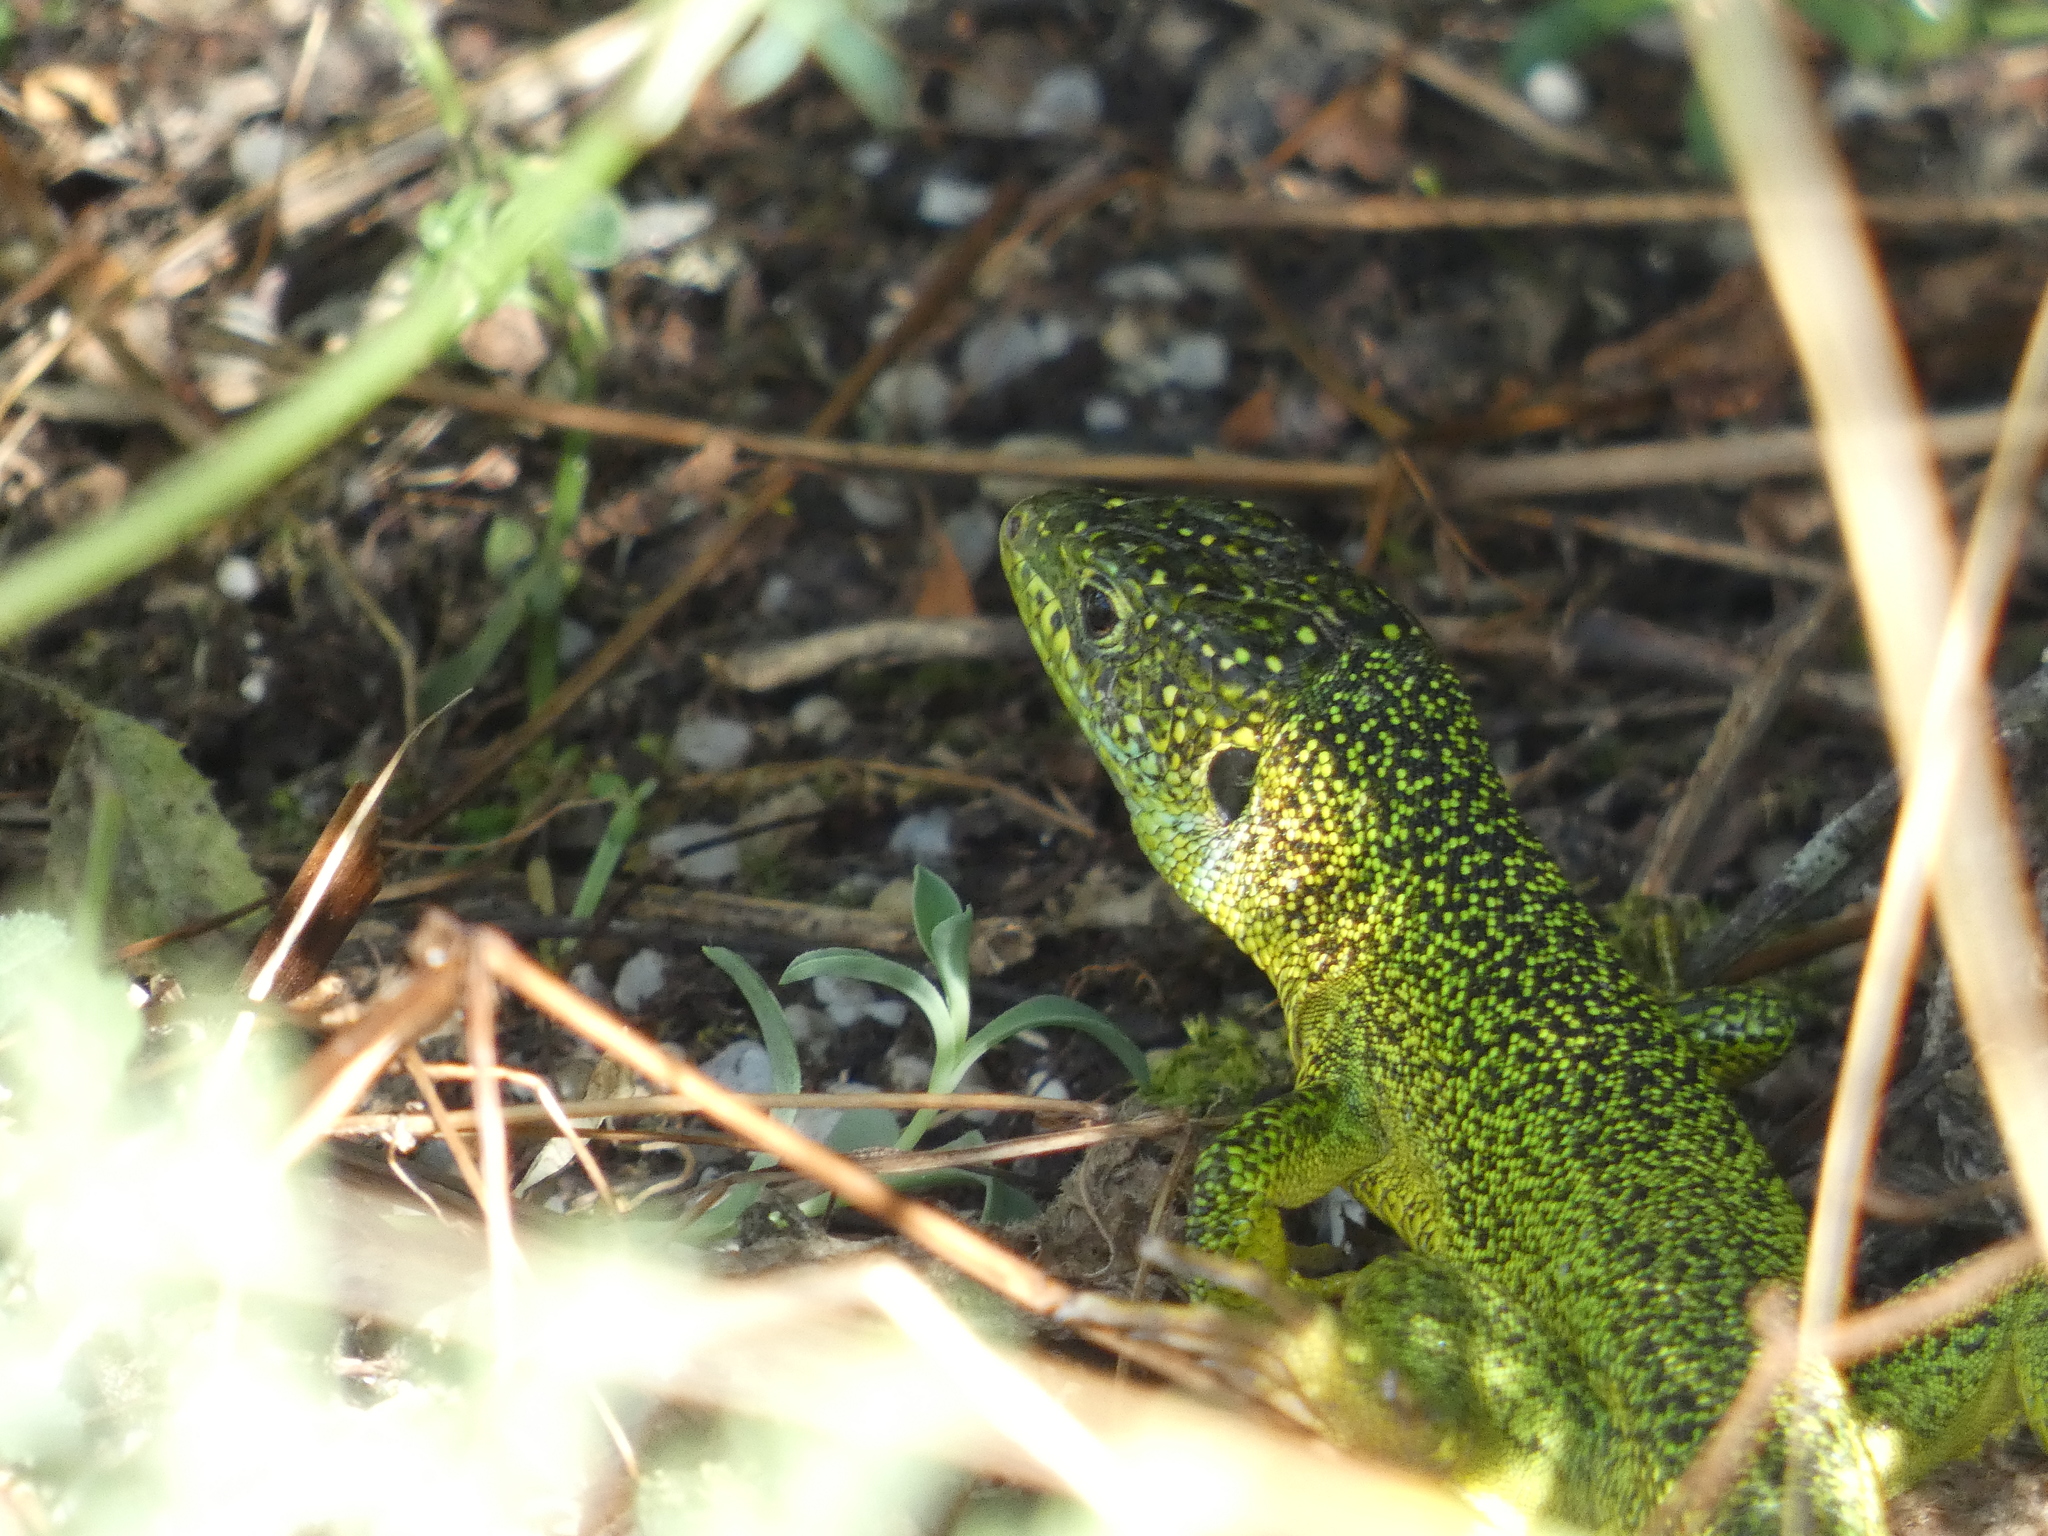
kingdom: Animalia
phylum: Chordata
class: Squamata
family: Lacertidae
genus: Lacerta
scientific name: Lacerta bilineata
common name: Western green lizard
